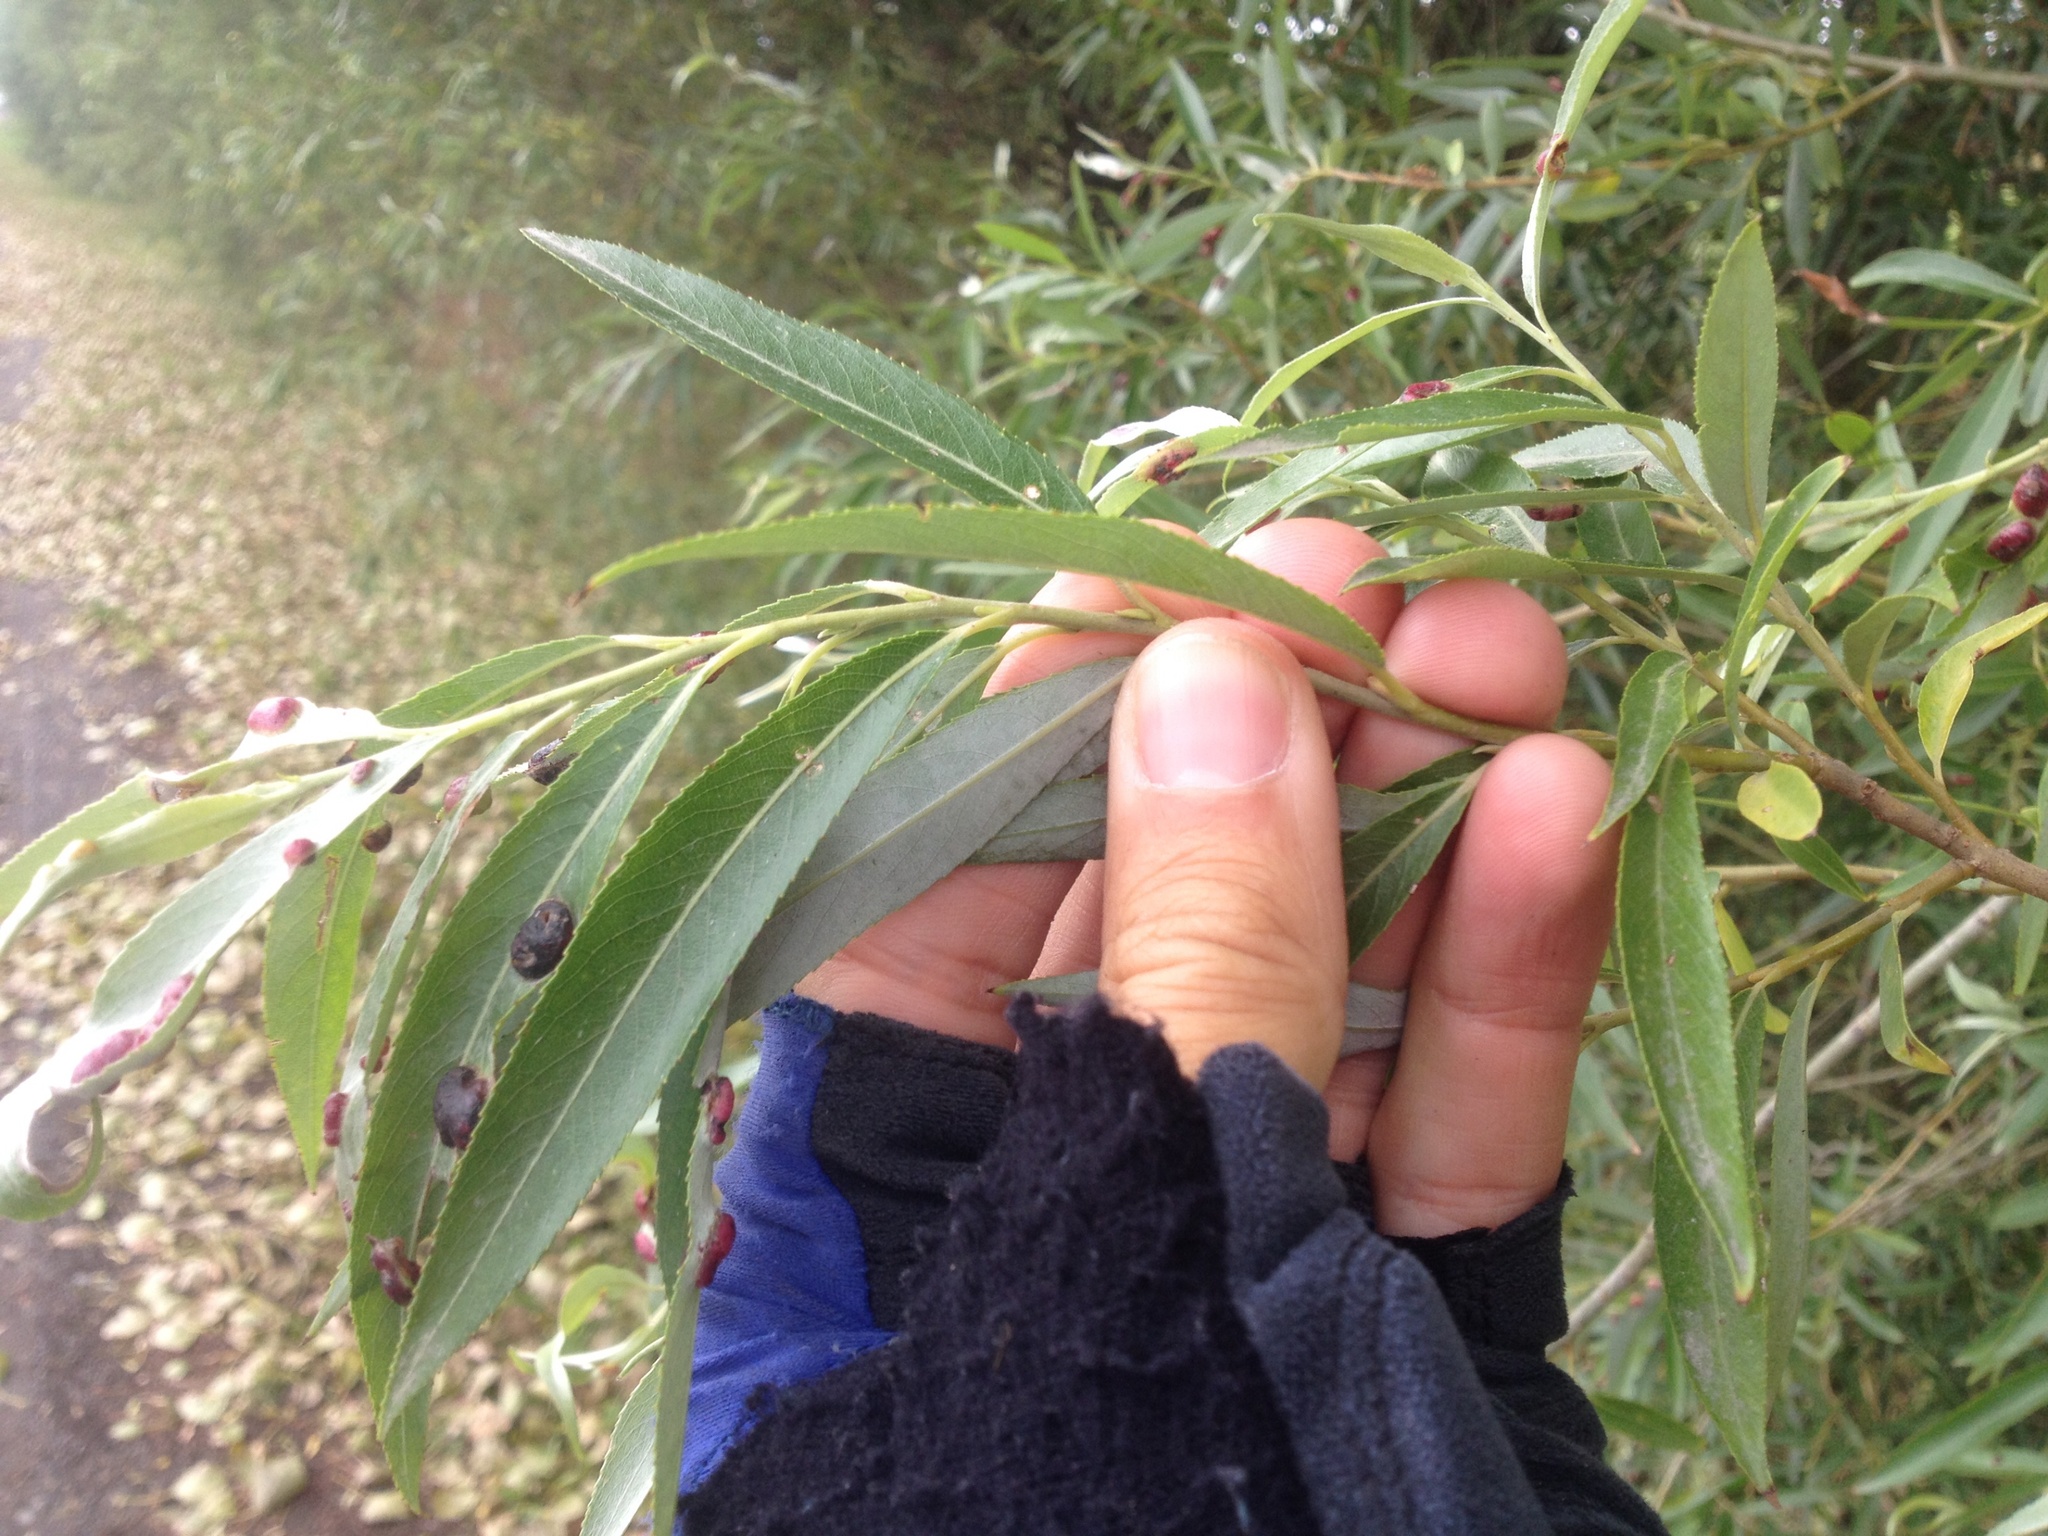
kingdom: Plantae
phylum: Tracheophyta
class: Magnoliopsida
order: Malpighiales
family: Salicaceae
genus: Salix
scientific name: Salix fragilis
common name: Crack willow
